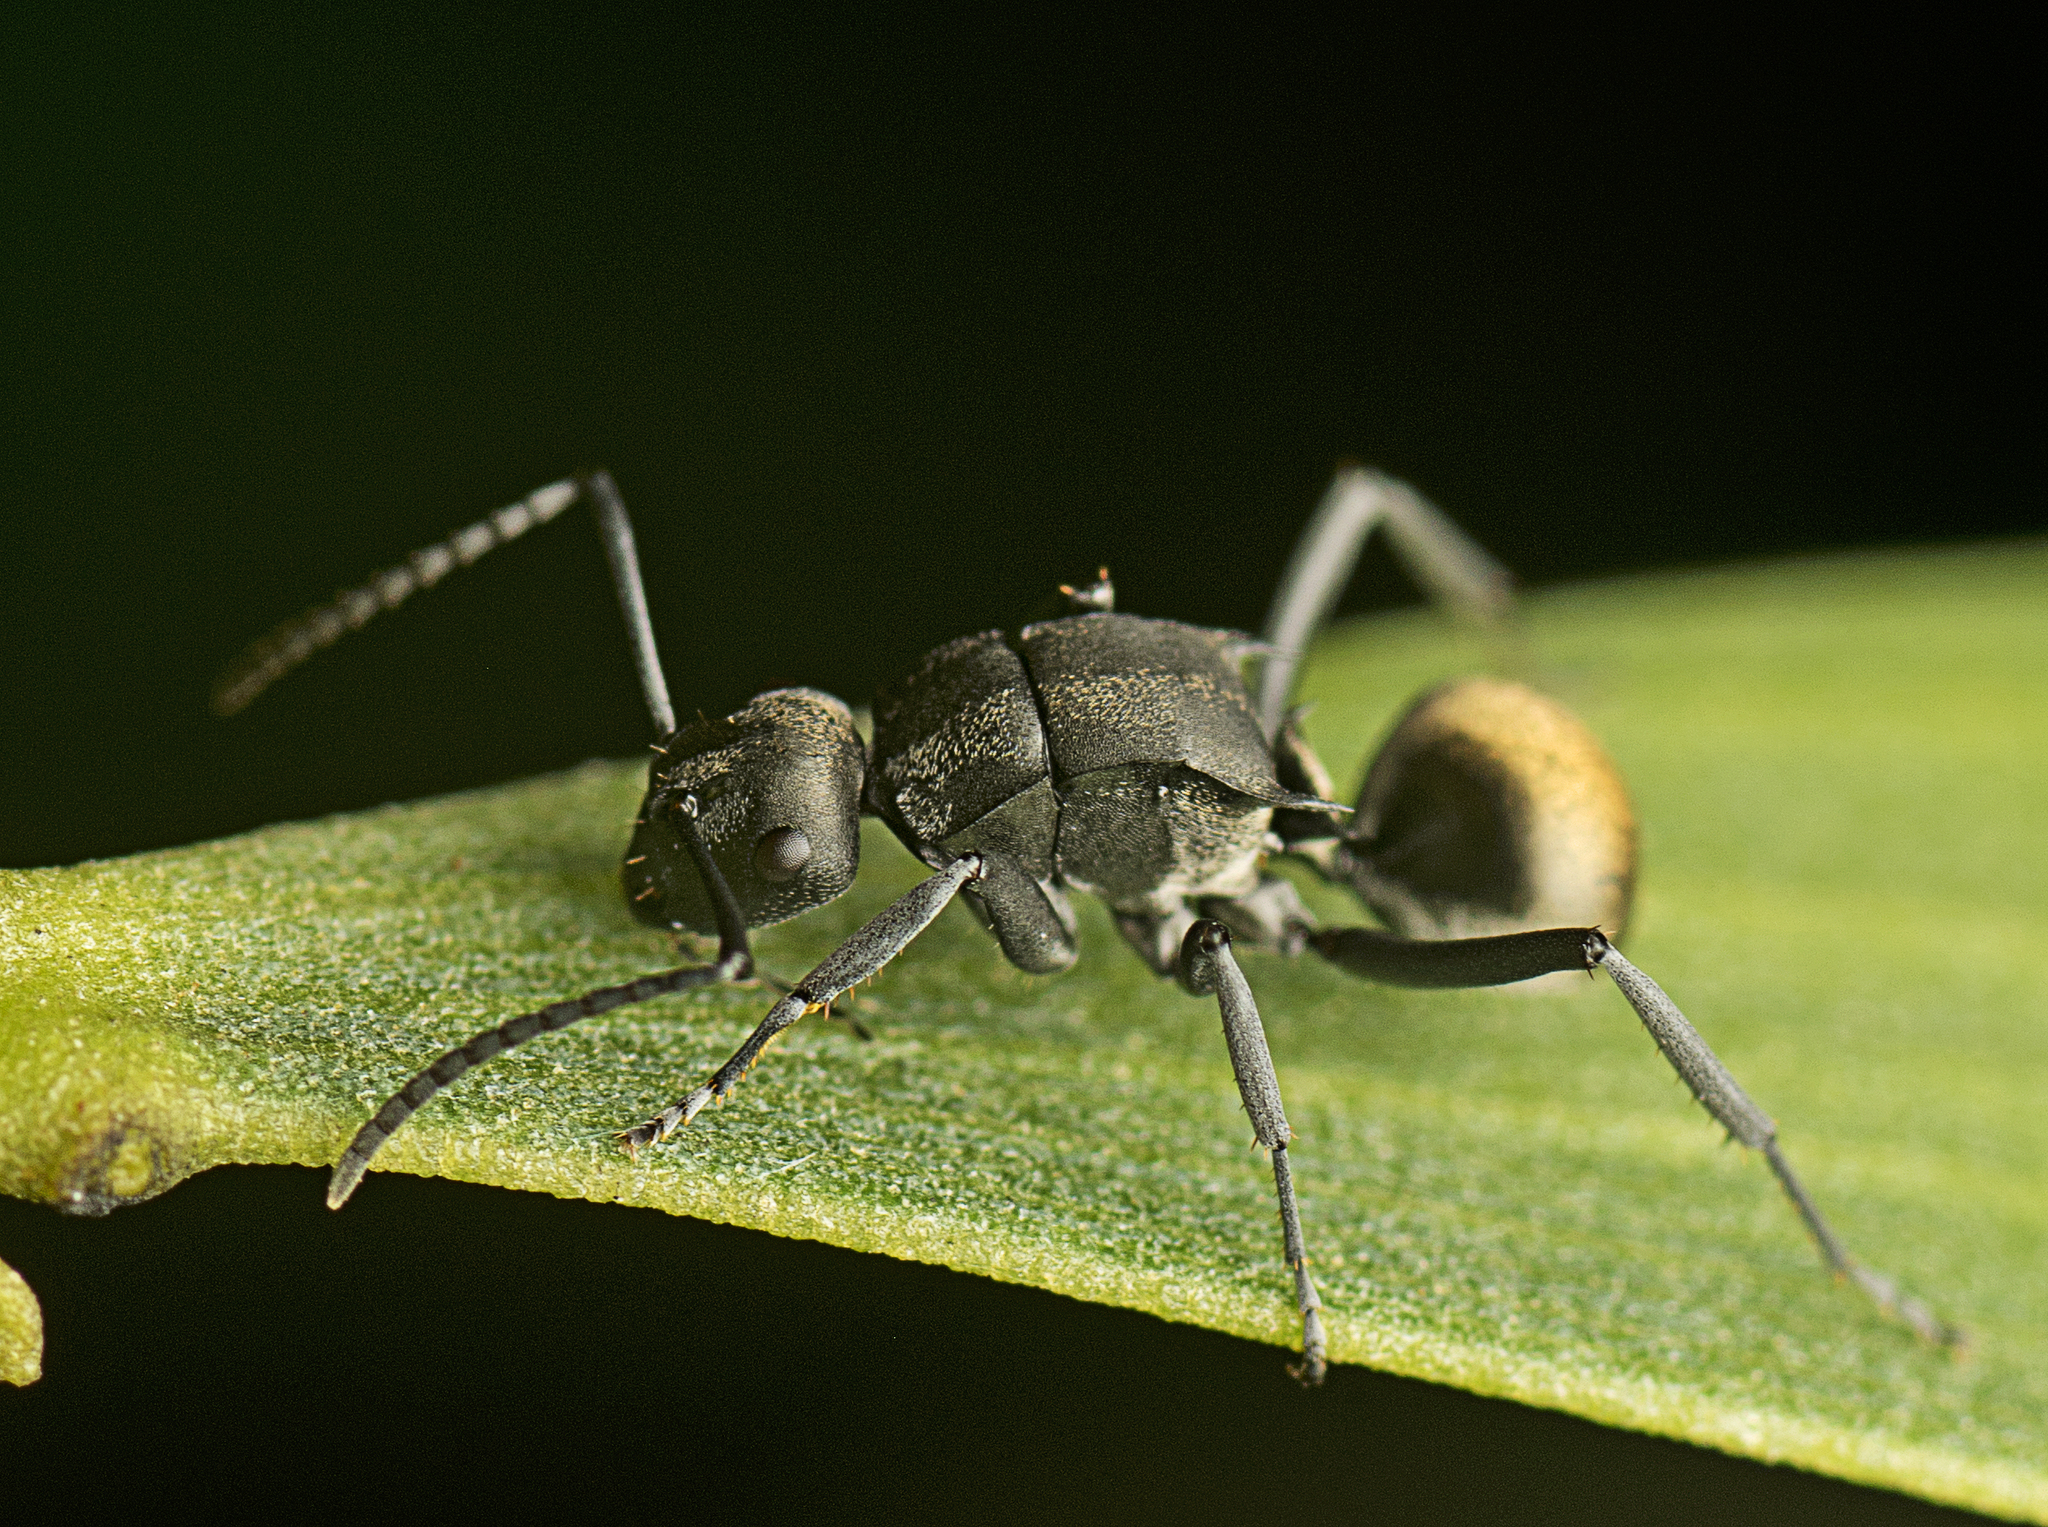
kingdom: Animalia
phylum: Arthropoda
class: Insecta
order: Hymenoptera
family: Formicidae
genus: Polyrhachis
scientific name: Polyrhachis tubifera
